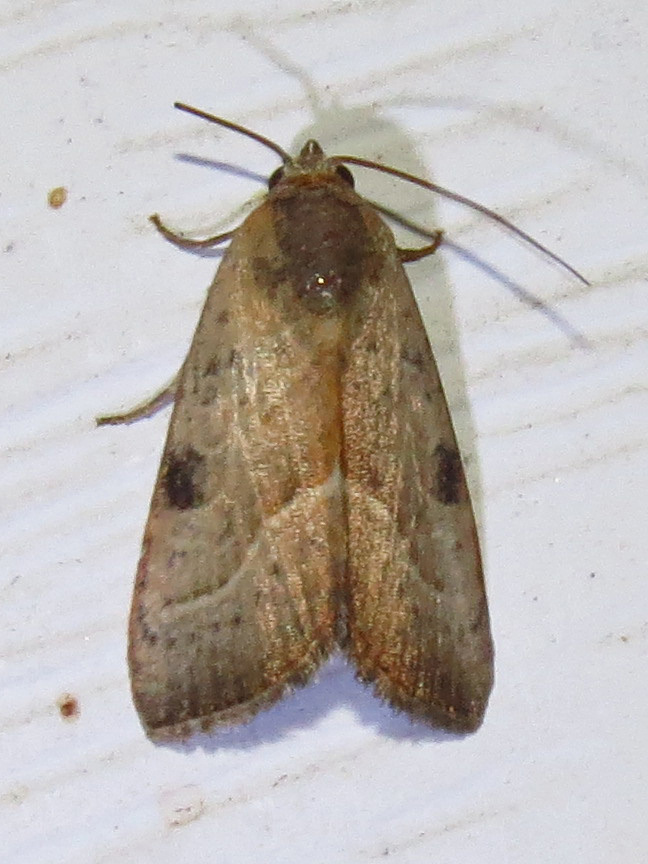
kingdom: Animalia
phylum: Arthropoda
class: Insecta
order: Lepidoptera
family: Noctuidae
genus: Galgula
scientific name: Galgula partita
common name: Wedgeling
